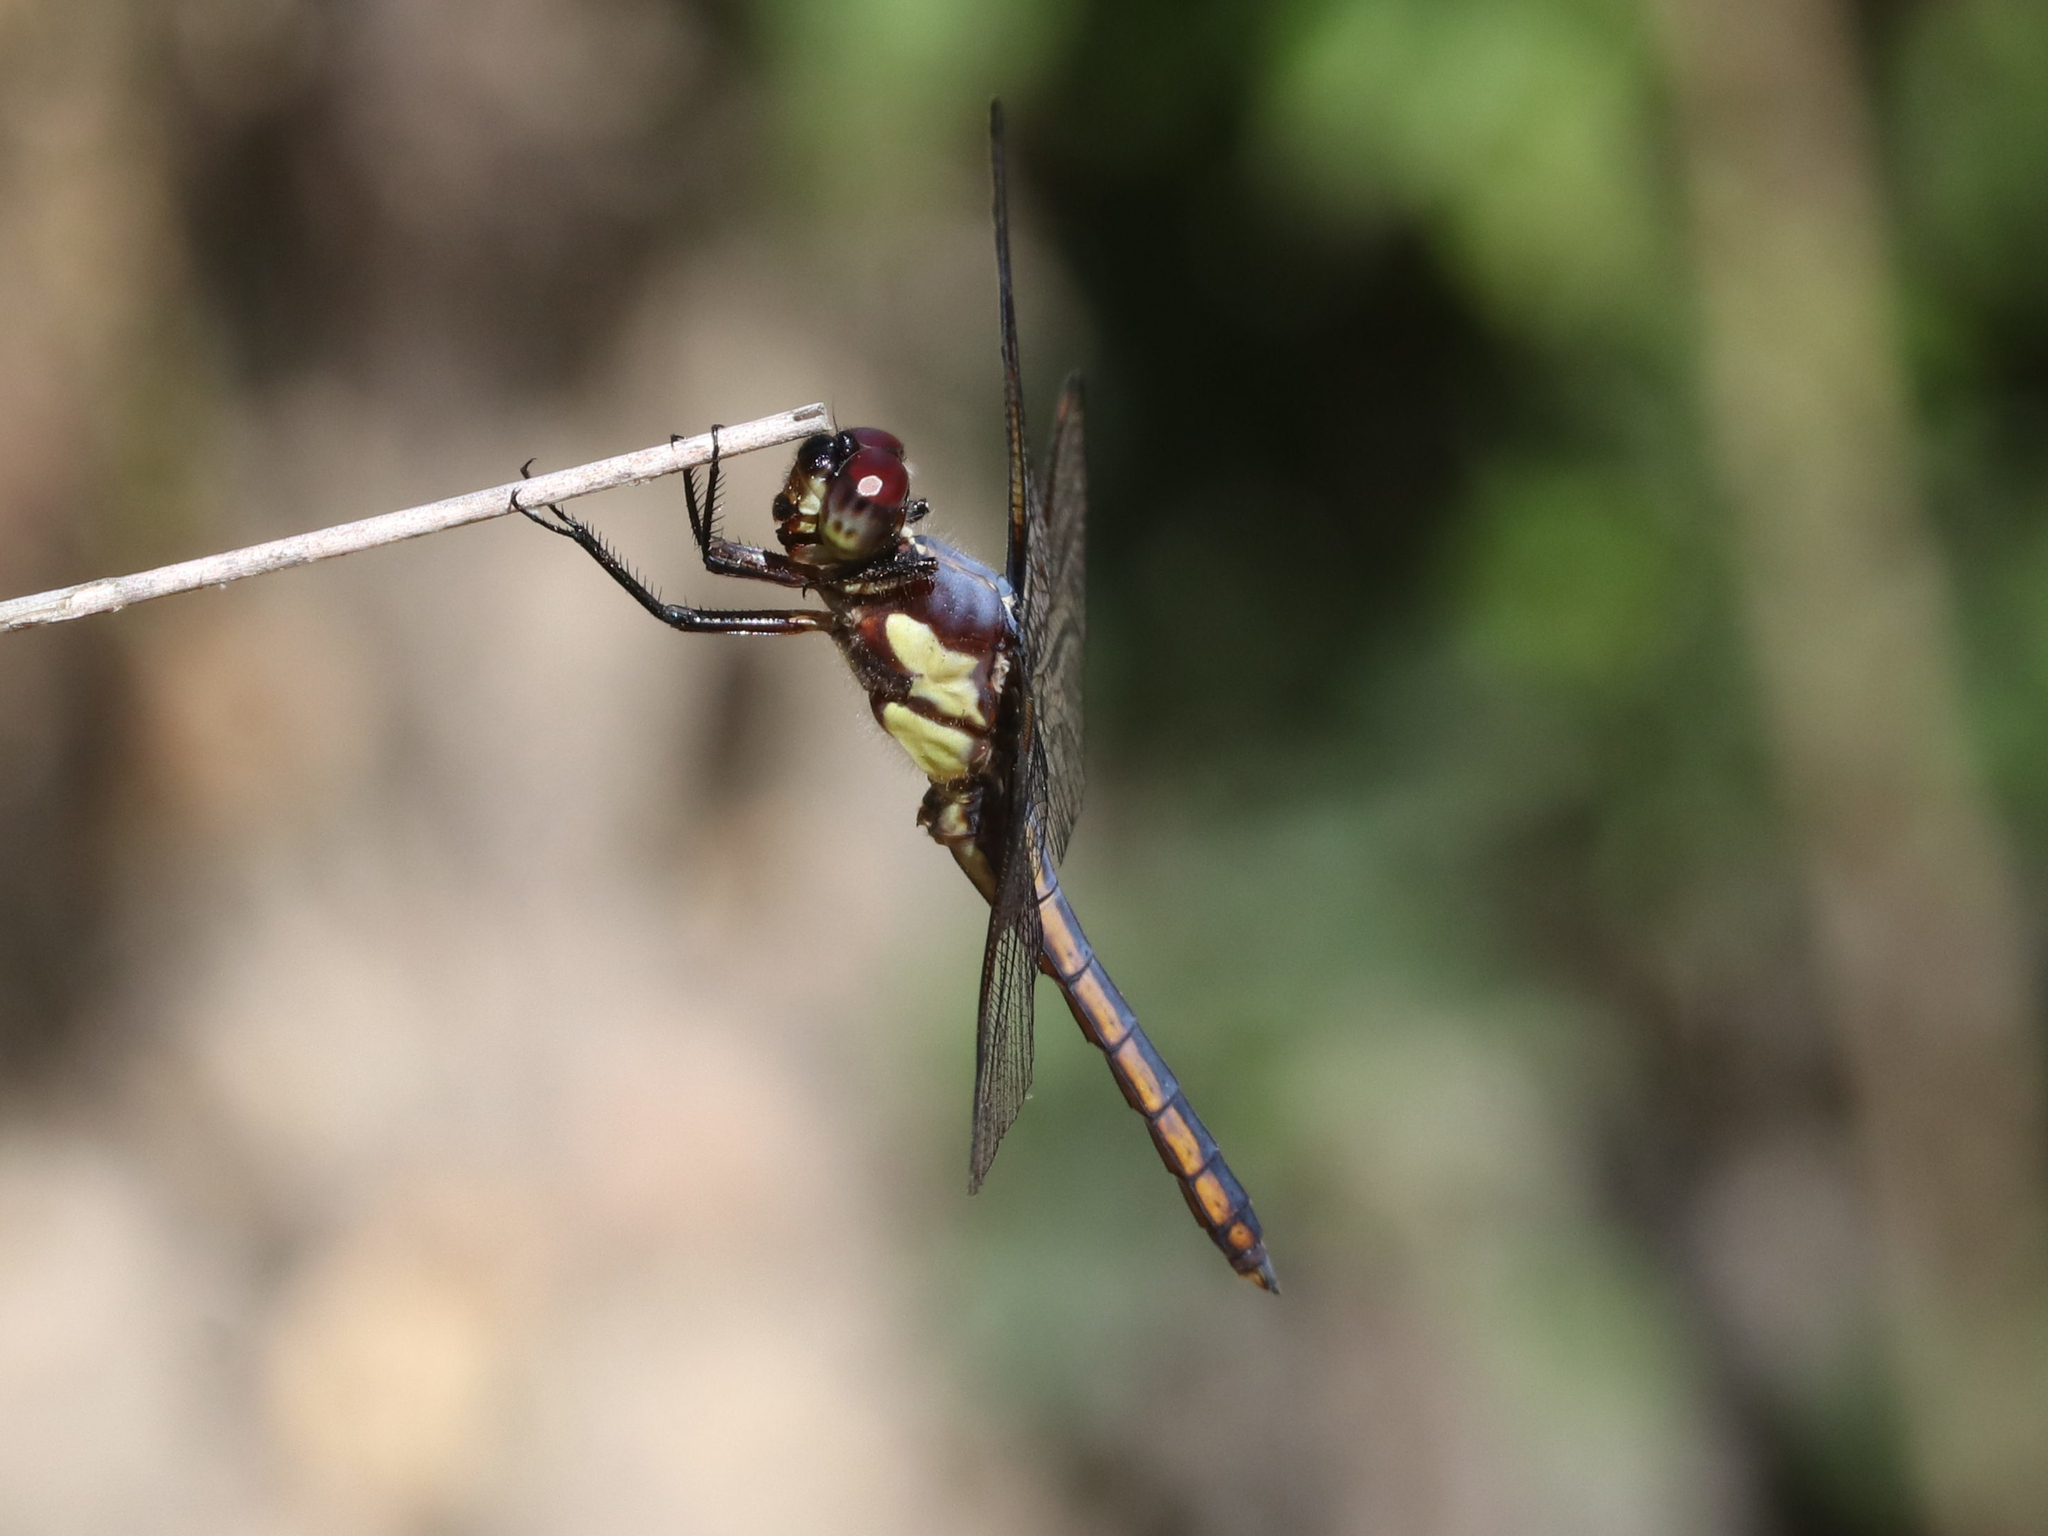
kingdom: Animalia
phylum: Arthropoda
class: Insecta
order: Odonata
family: Libellulidae
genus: Libellula
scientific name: Libellula flavida
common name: Yellow-sided skimmer
